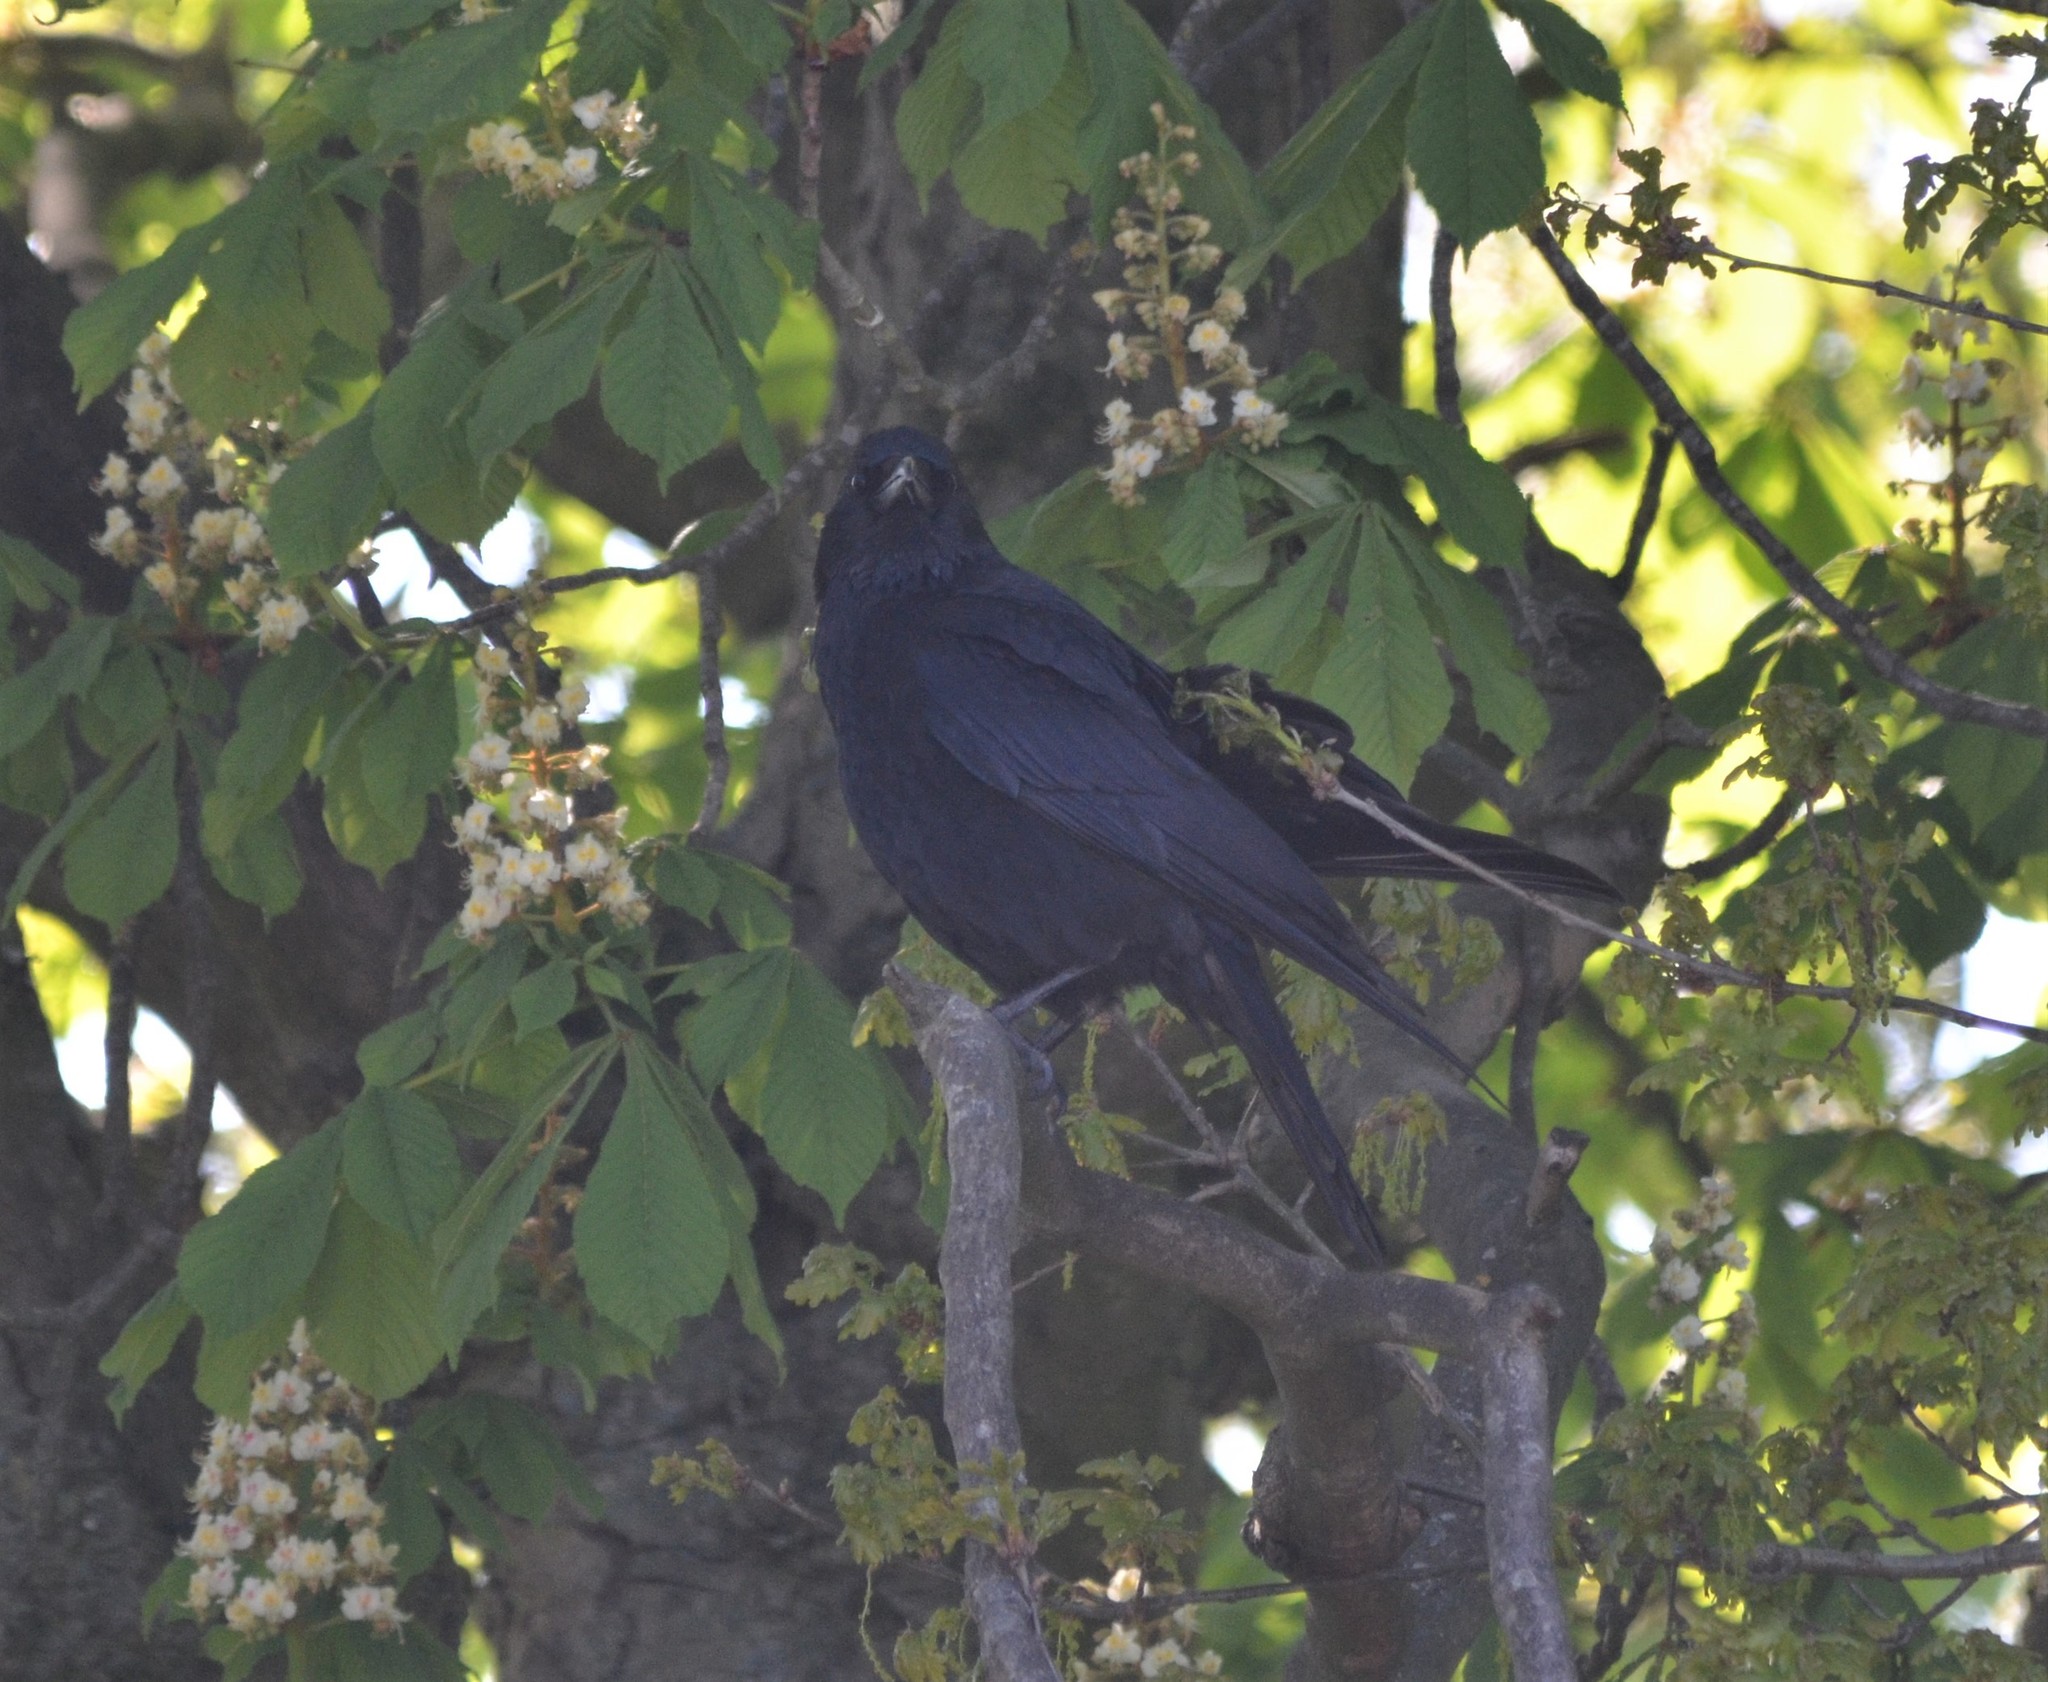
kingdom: Animalia
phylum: Chordata
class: Aves
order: Passeriformes
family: Corvidae
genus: Corvus
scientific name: Corvus corone
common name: Carrion crow
